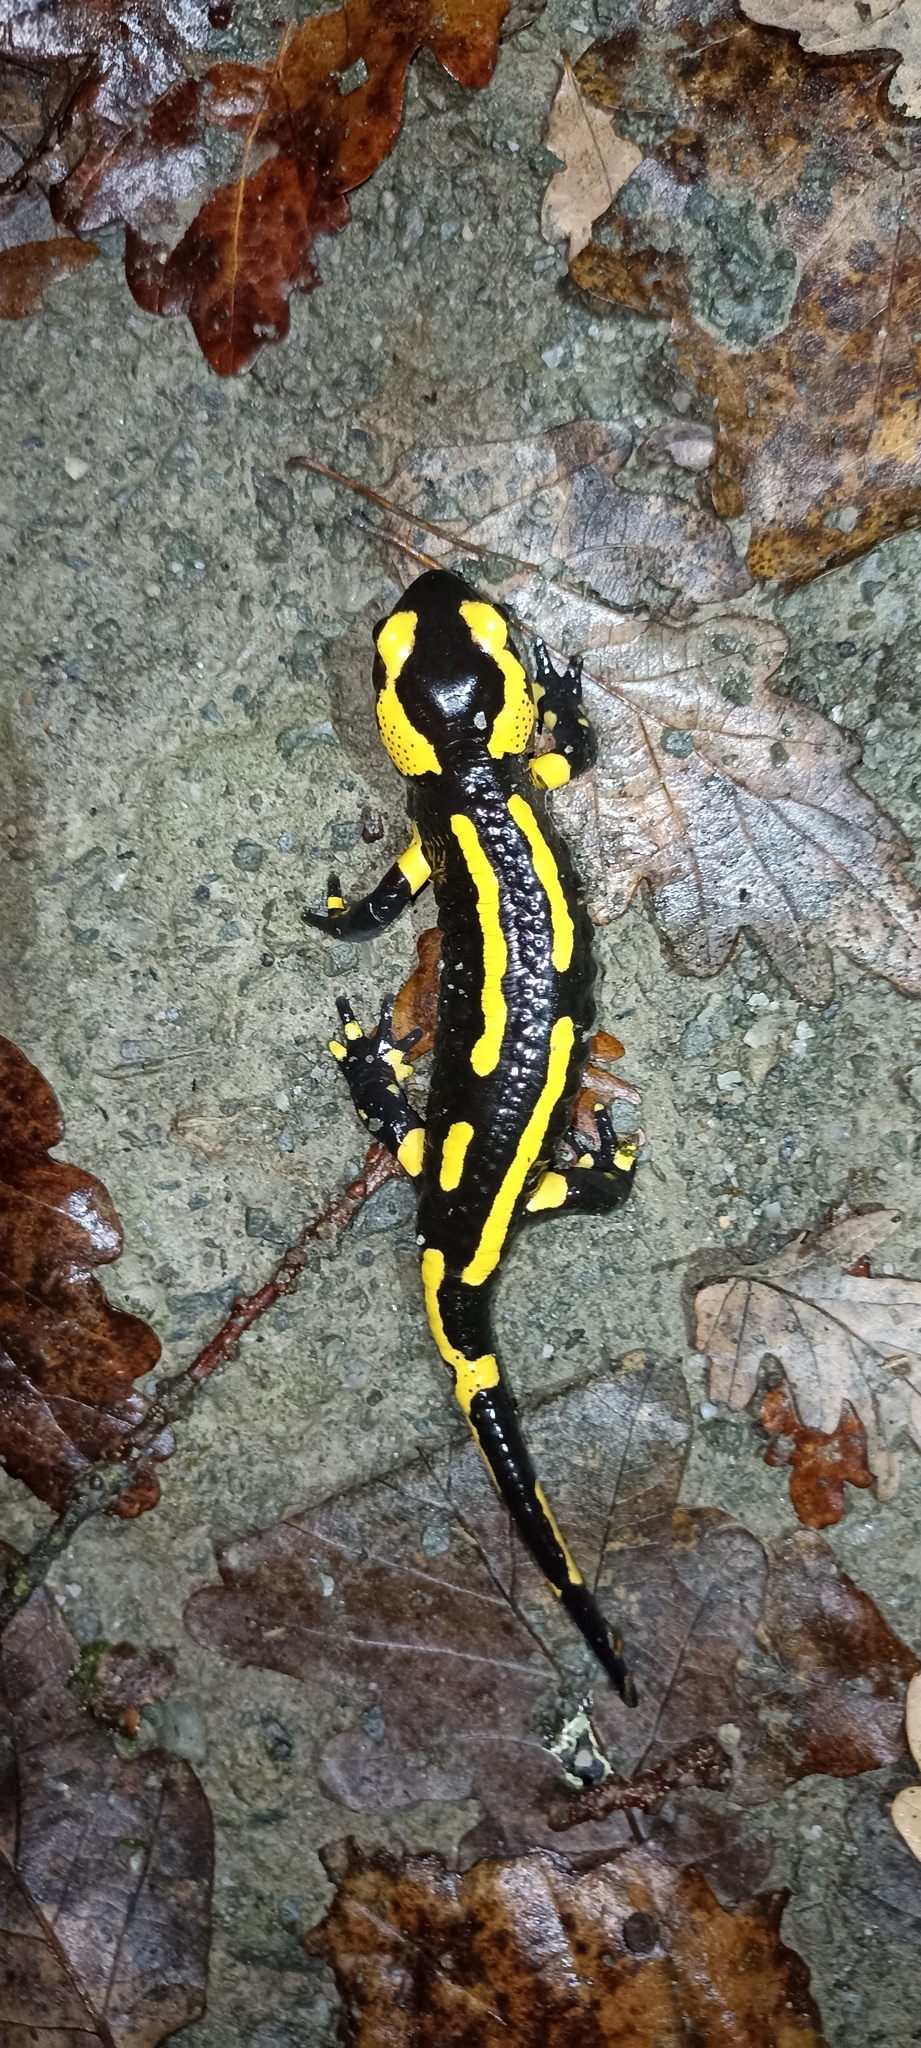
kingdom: Animalia
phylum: Chordata
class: Amphibia
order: Caudata
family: Salamandridae
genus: Salamandra
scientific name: Salamandra salamandra
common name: Fire salamander
